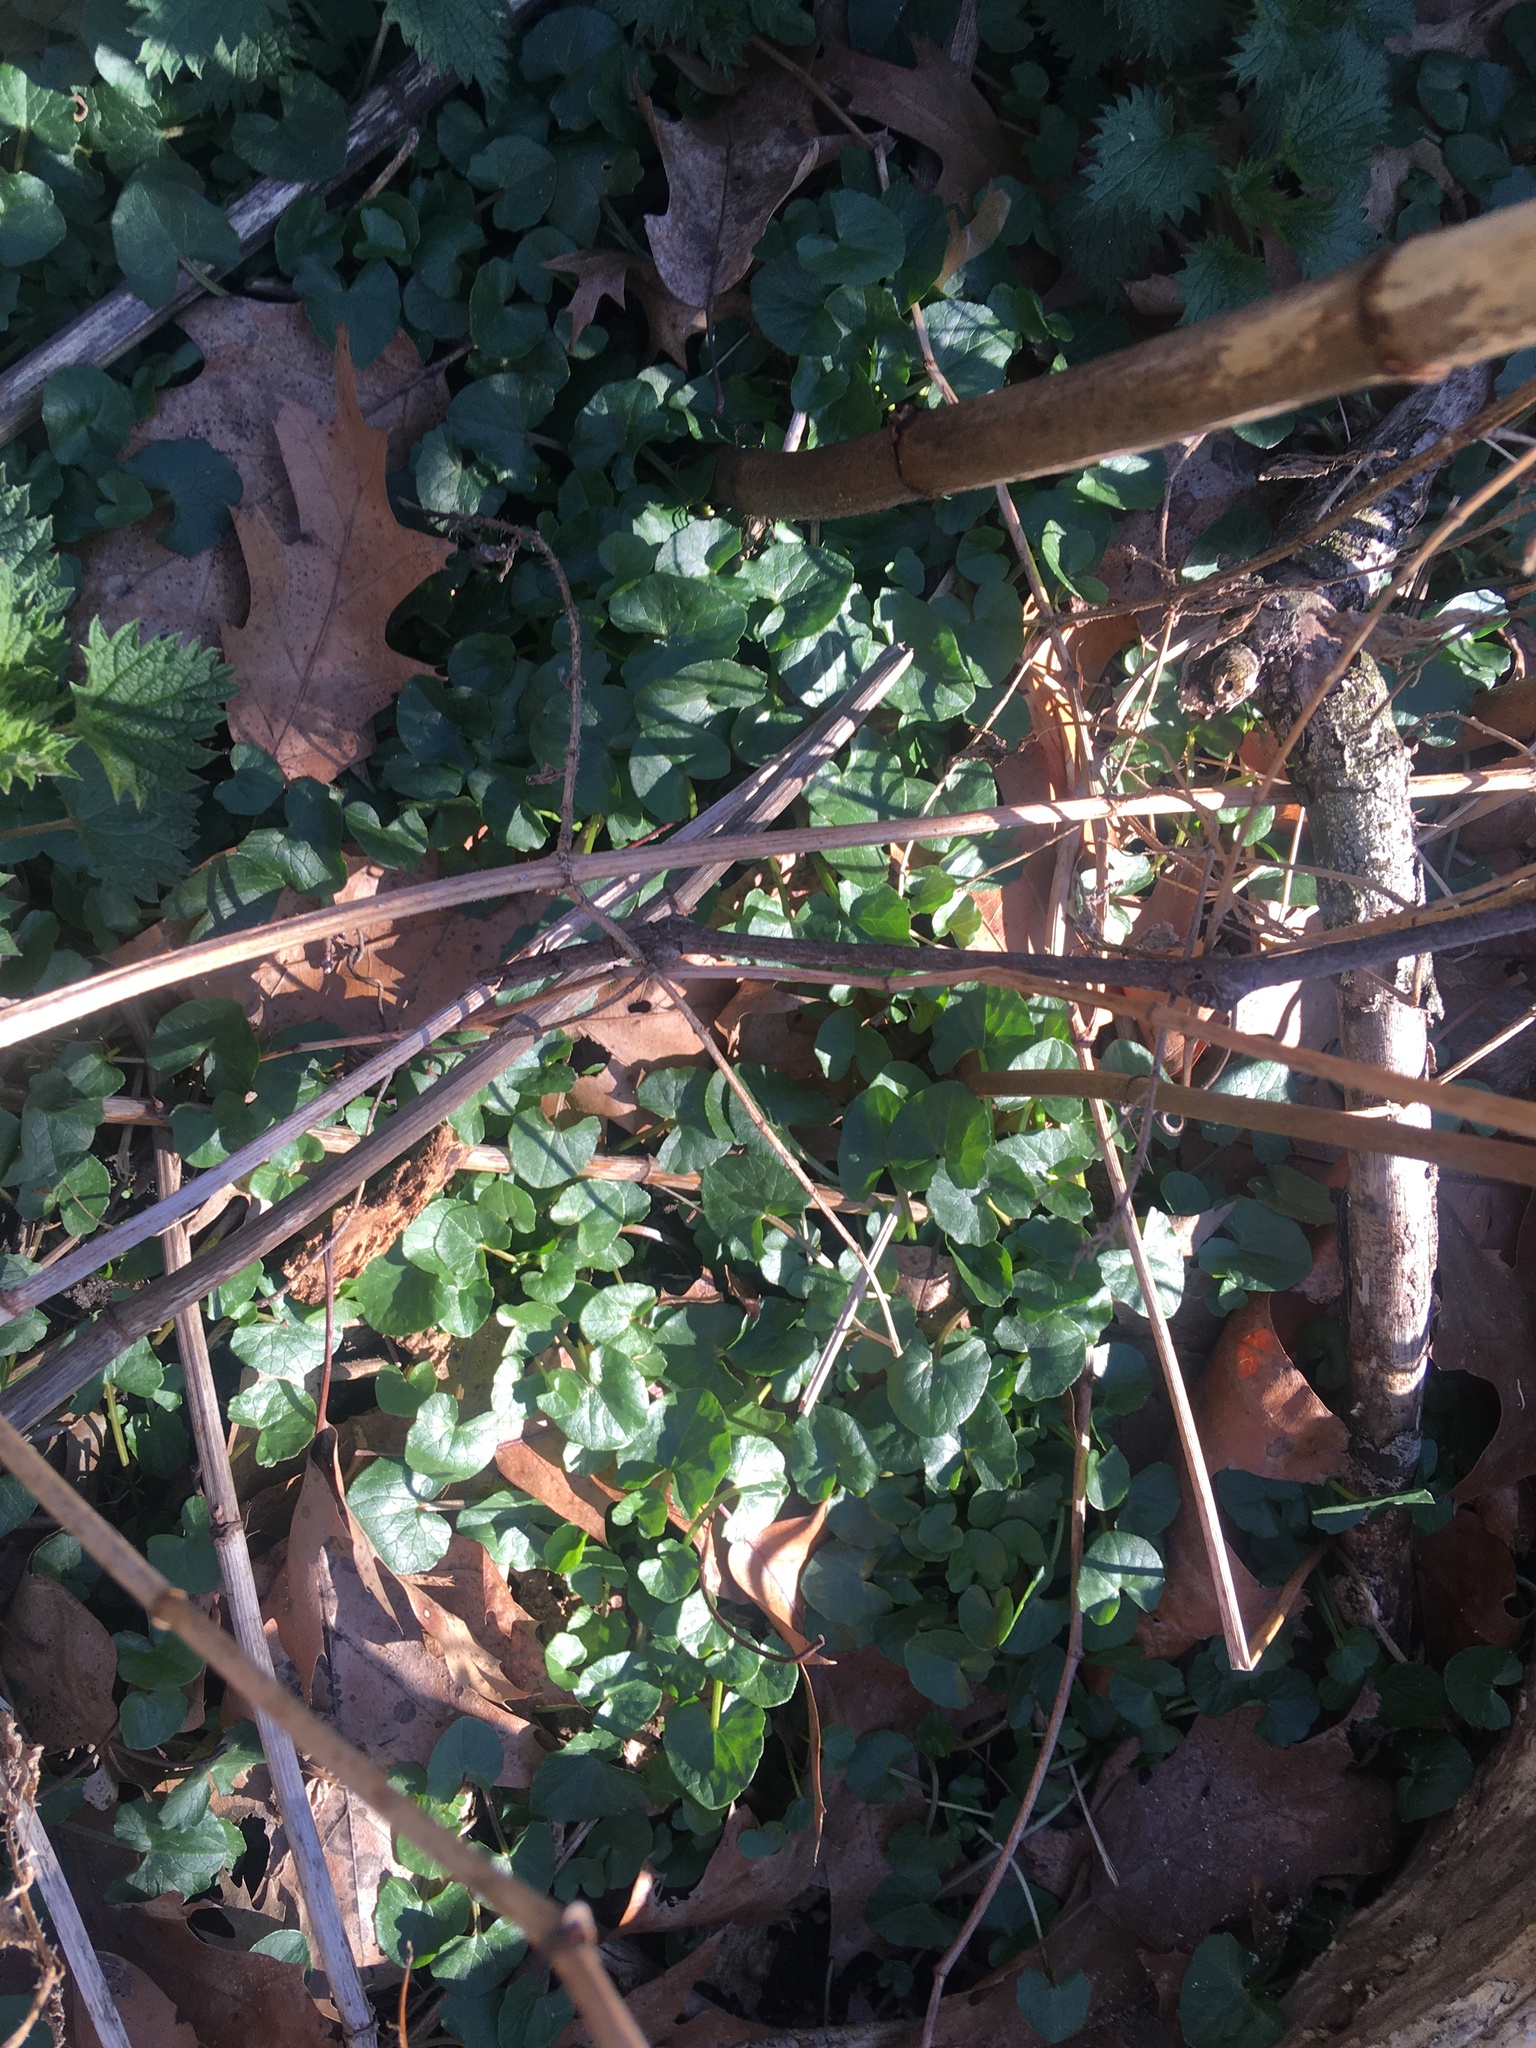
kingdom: Plantae
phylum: Tracheophyta
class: Magnoliopsida
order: Ranunculales
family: Ranunculaceae
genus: Ficaria
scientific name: Ficaria verna
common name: Lesser celandine
